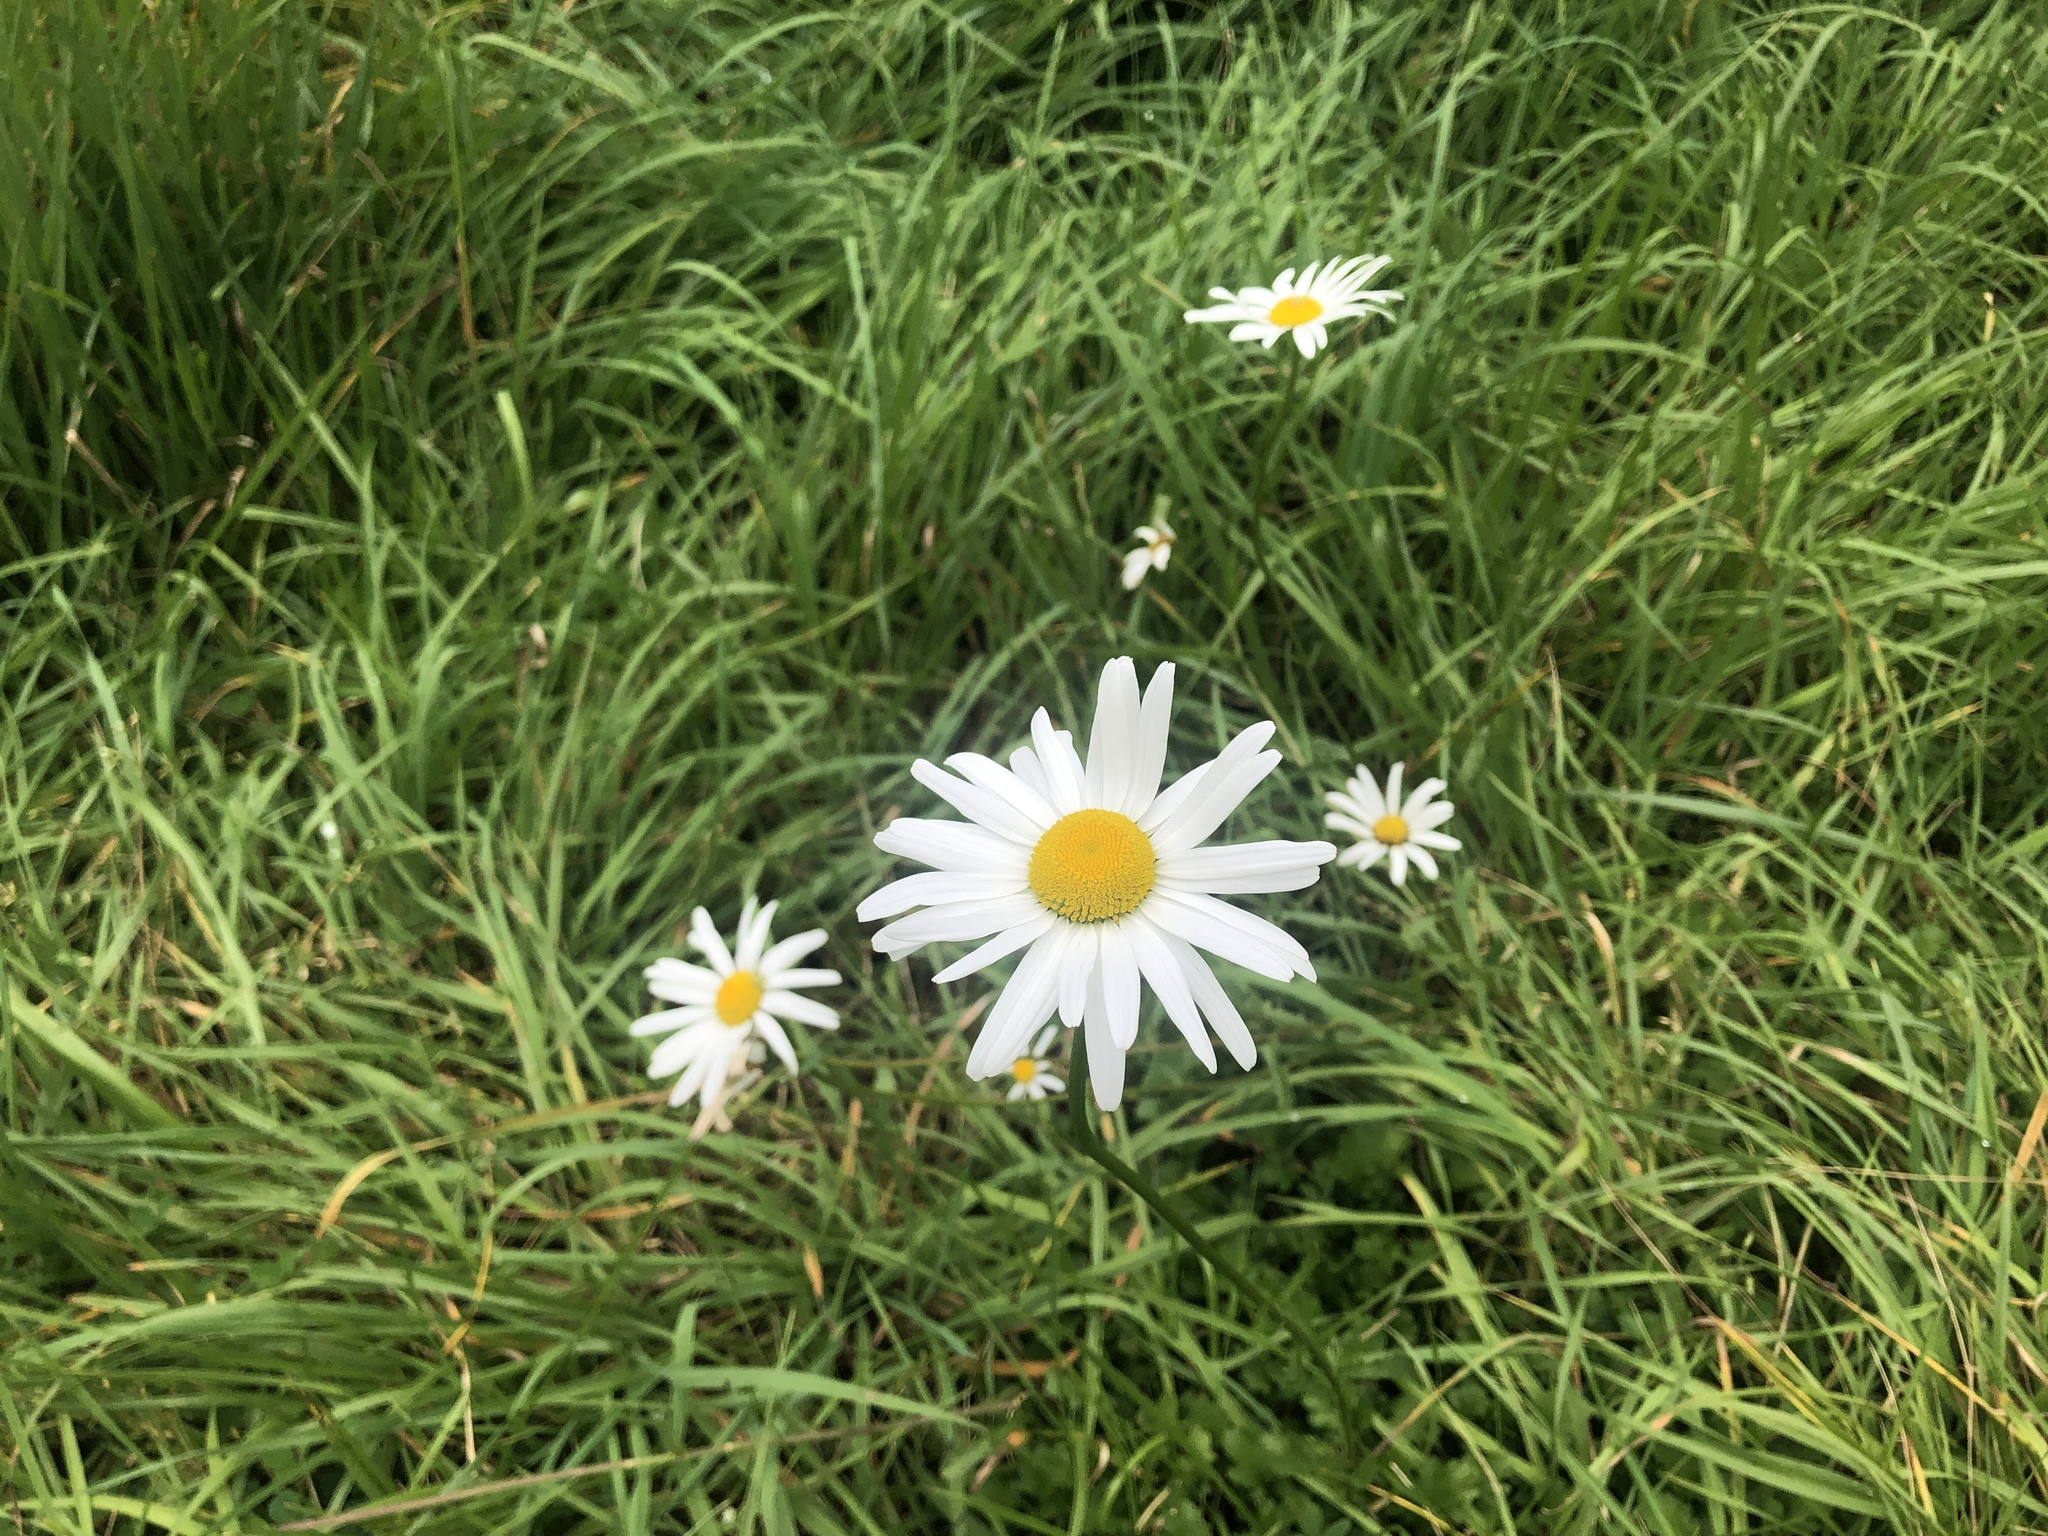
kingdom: Plantae
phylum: Tracheophyta
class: Magnoliopsida
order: Asterales
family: Asteraceae
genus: Leucanthemum
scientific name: Leucanthemum vulgare
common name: Oxeye daisy
